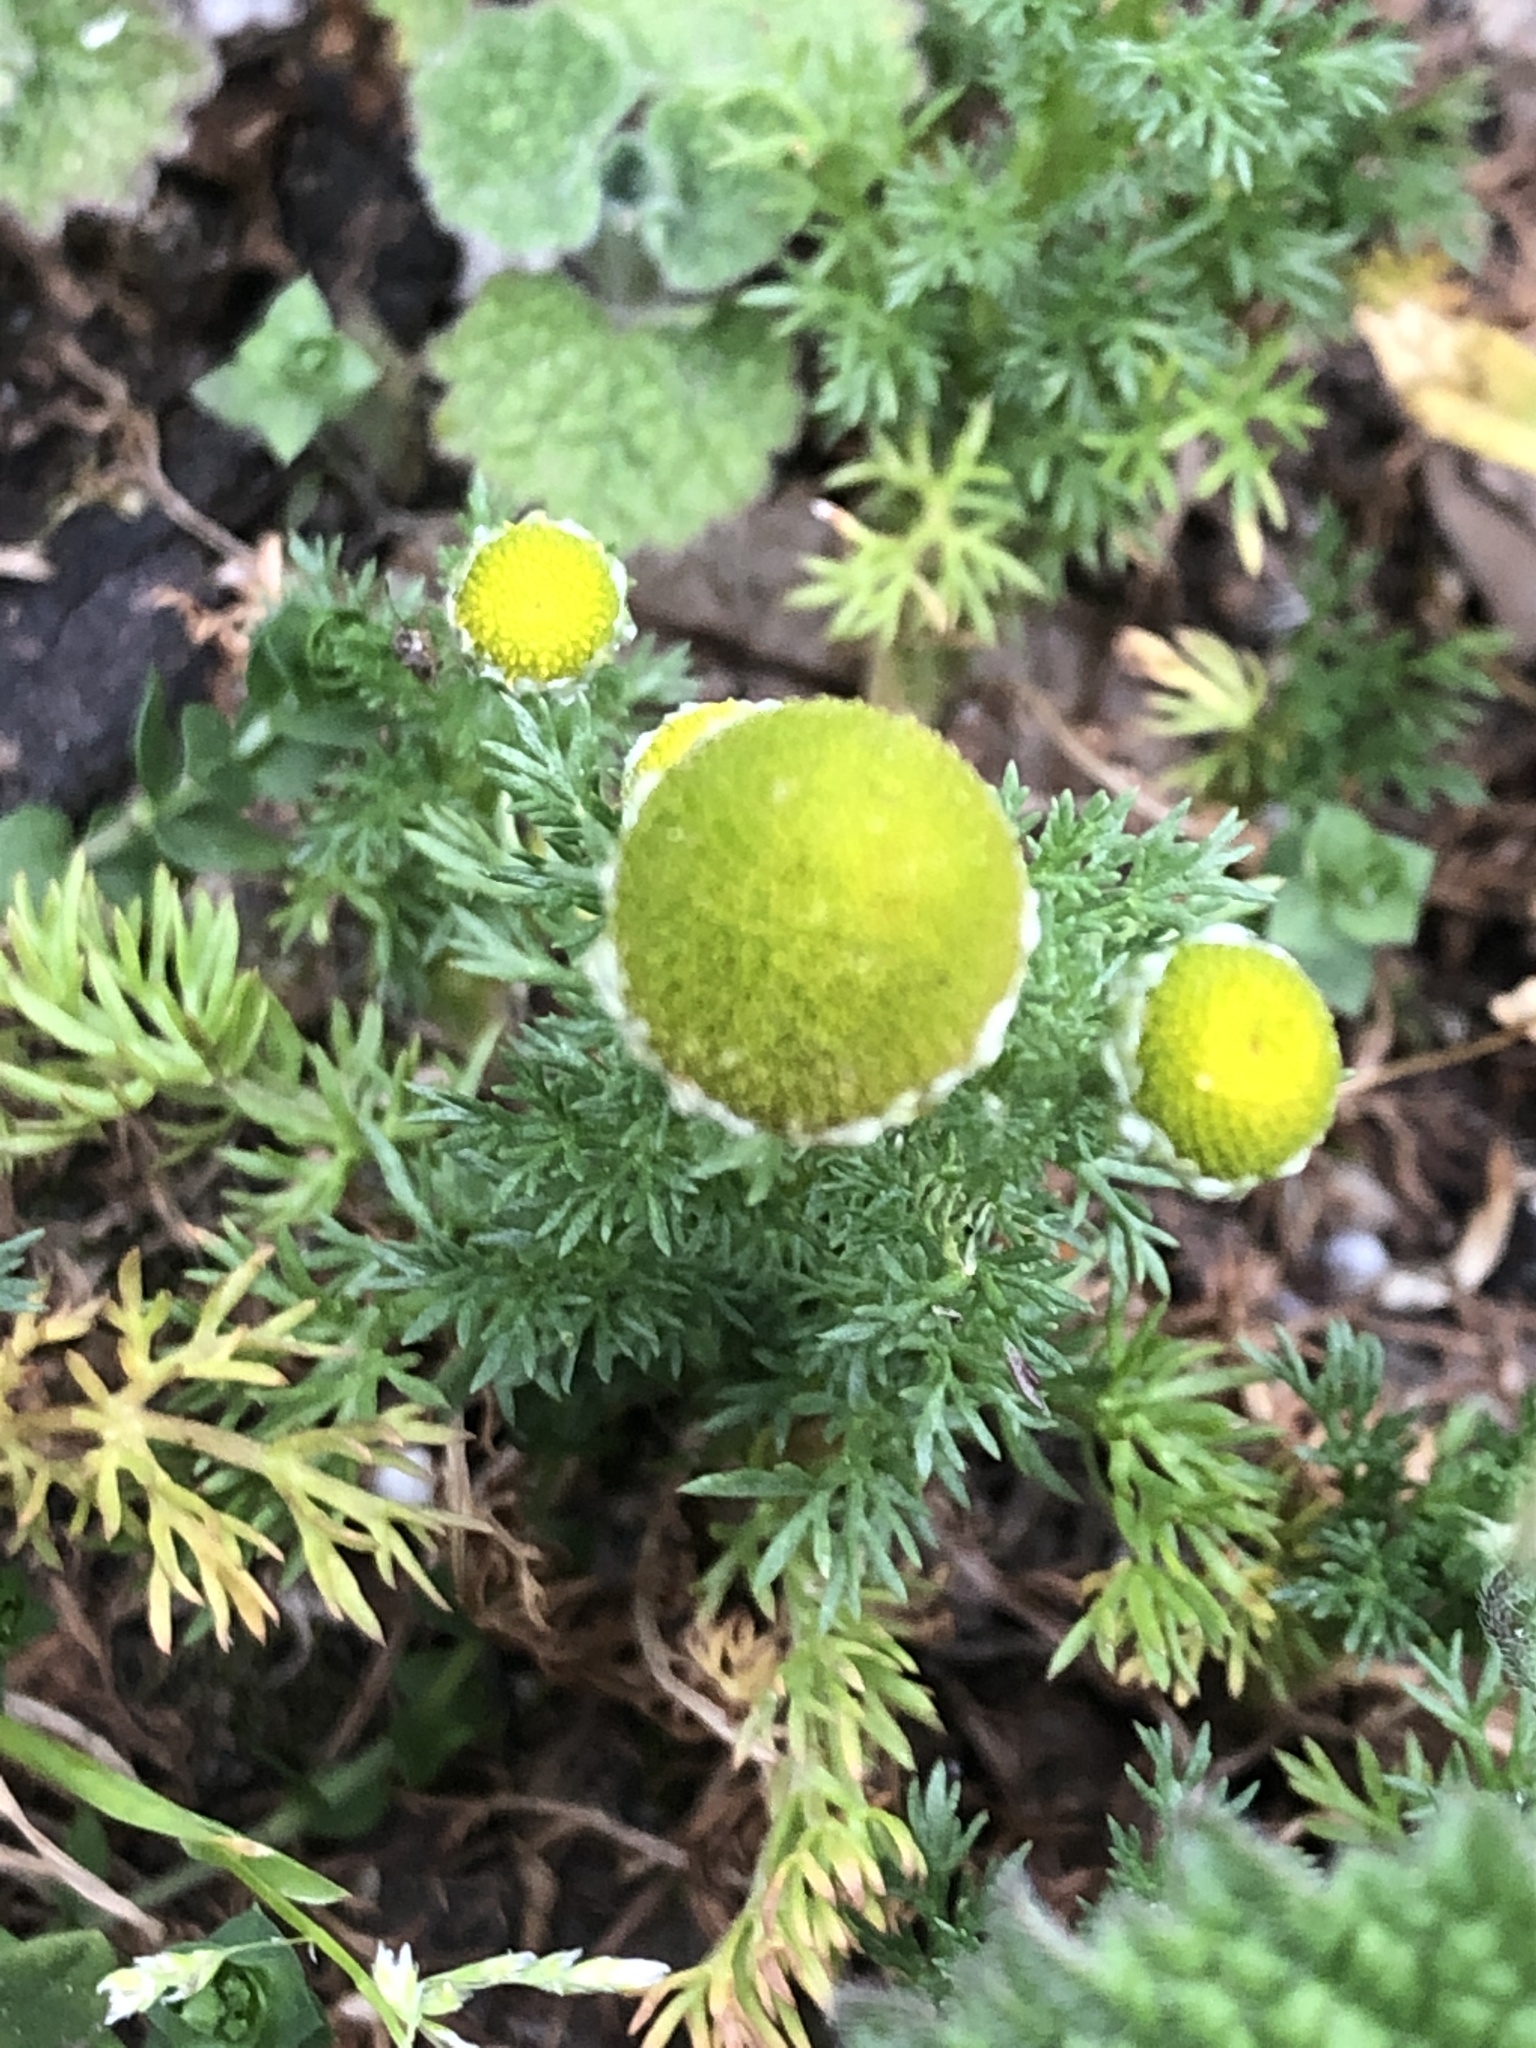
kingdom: Plantae
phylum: Tracheophyta
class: Magnoliopsida
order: Asterales
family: Asteraceae
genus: Matricaria
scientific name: Matricaria discoidea
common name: Disc mayweed
